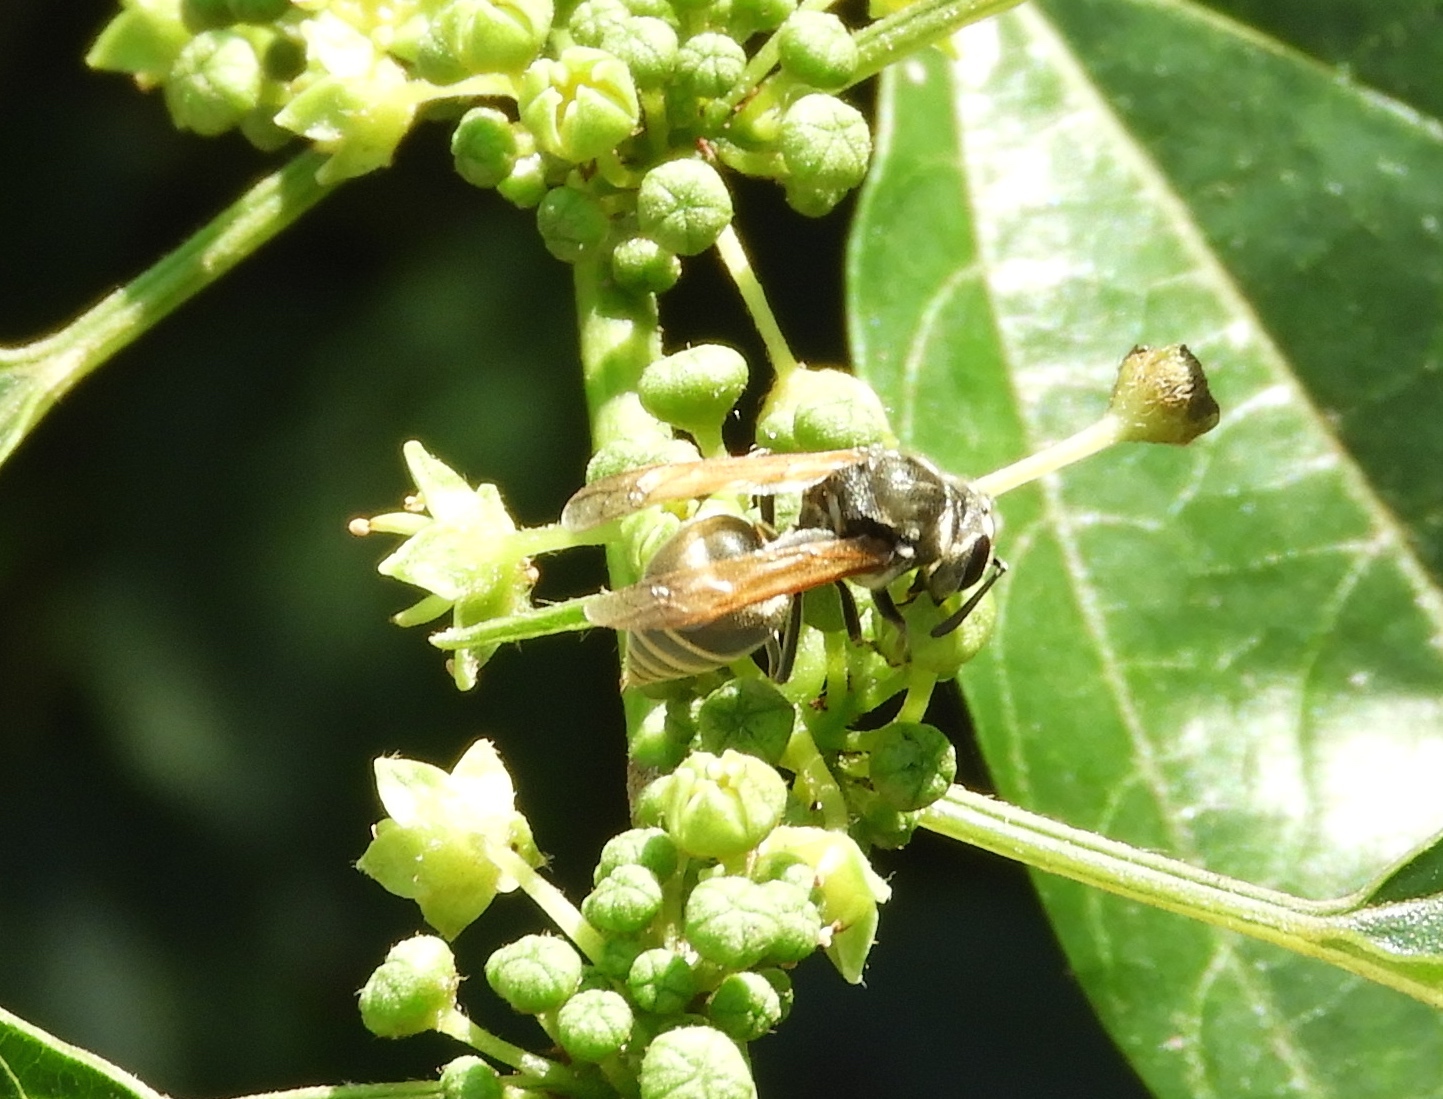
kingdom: Animalia
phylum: Arthropoda
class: Insecta
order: Hymenoptera
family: Vespidae
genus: Brachygastra
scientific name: Brachygastra mellifica
